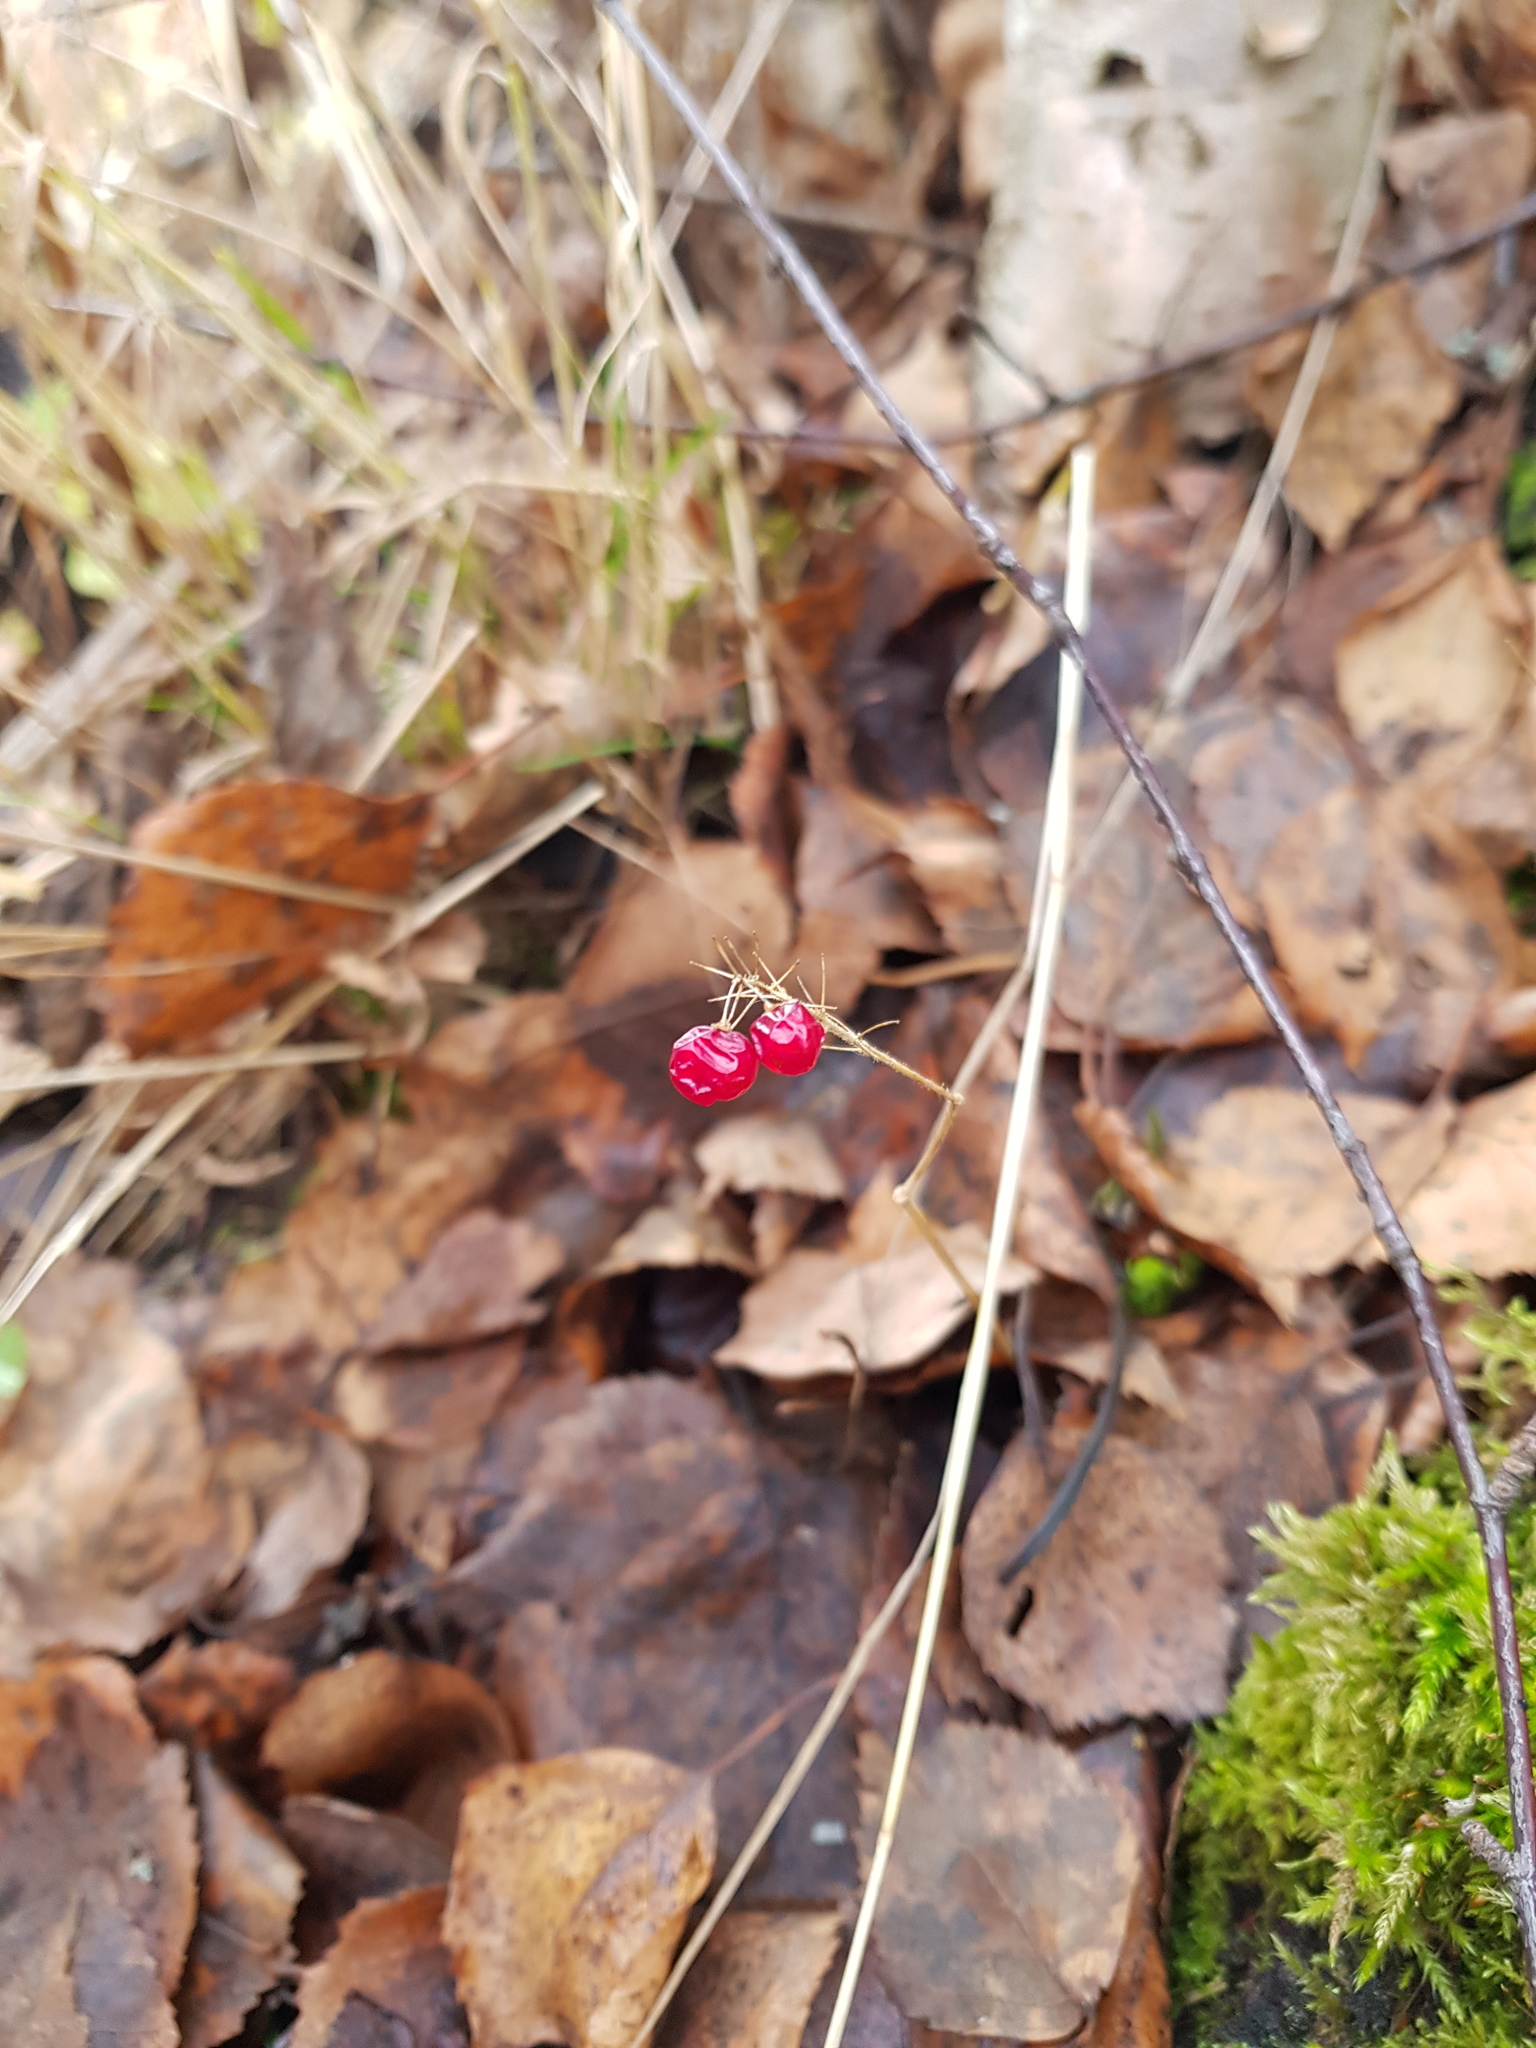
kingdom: Plantae
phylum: Tracheophyta
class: Liliopsida
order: Asparagales
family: Asparagaceae
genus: Maianthemum
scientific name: Maianthemum bifolium
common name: May lily
